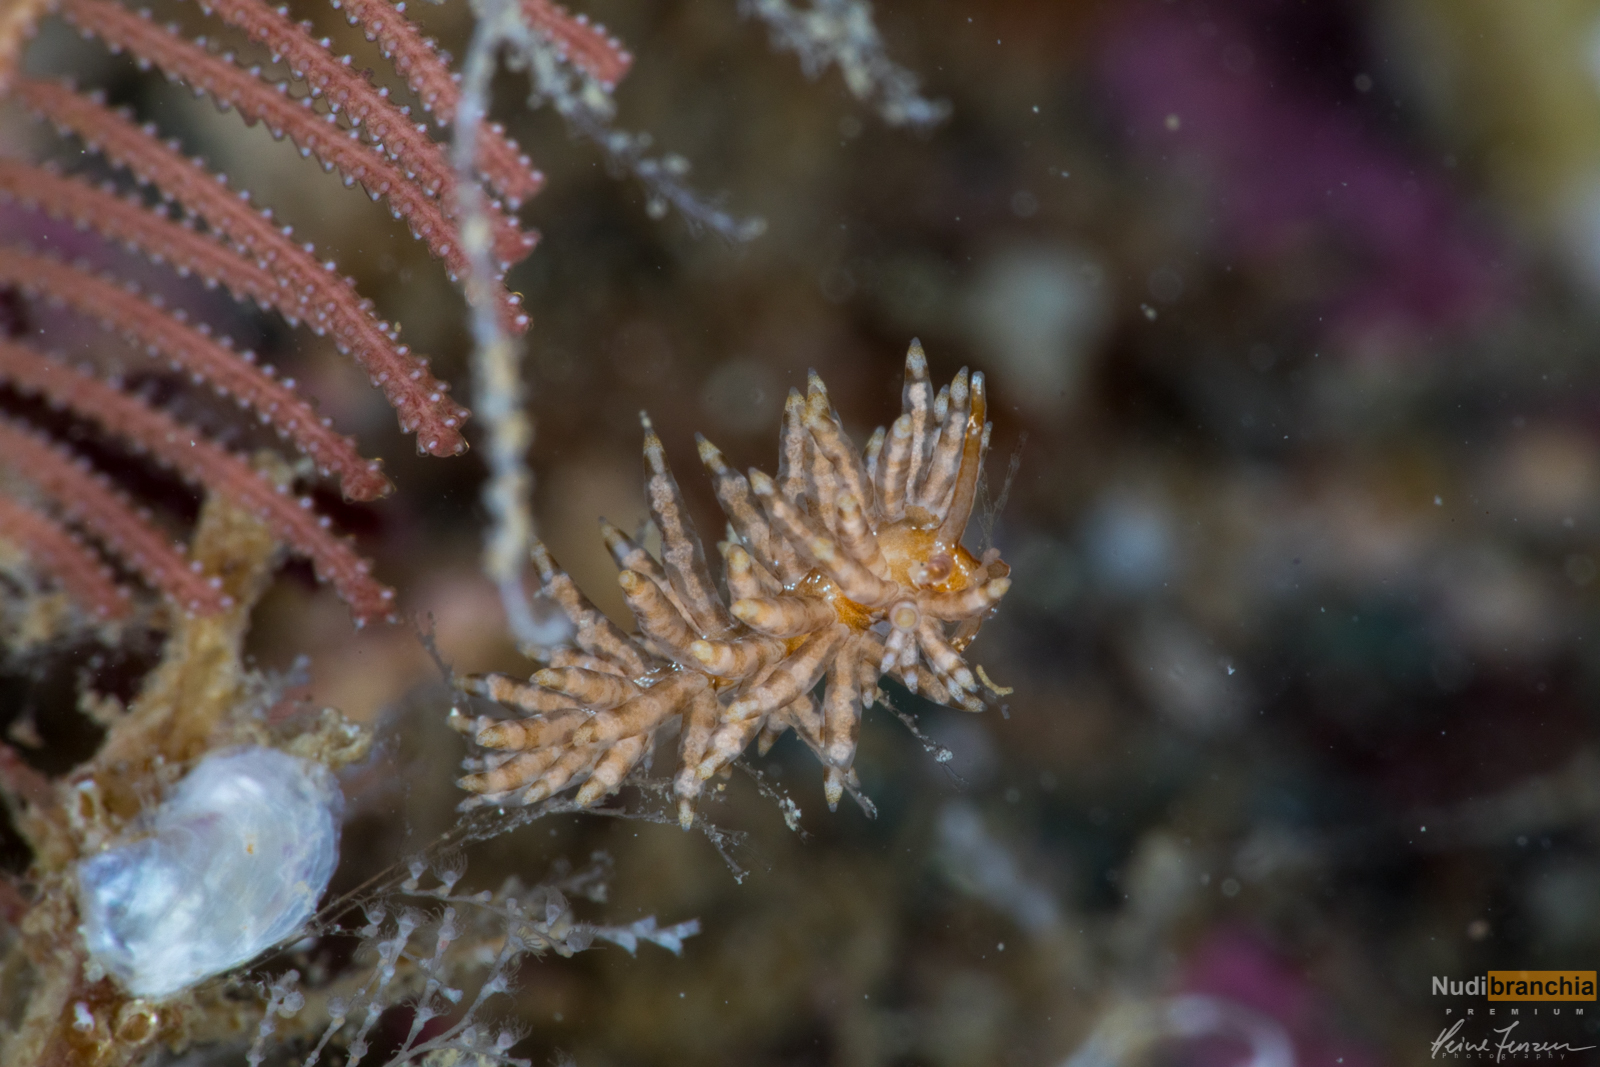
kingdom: Animalia
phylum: Mollusca
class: Gastropoda
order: Nudibranchia
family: Eubranchidae
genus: Eubranchus
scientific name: Eubranchus vittatus
